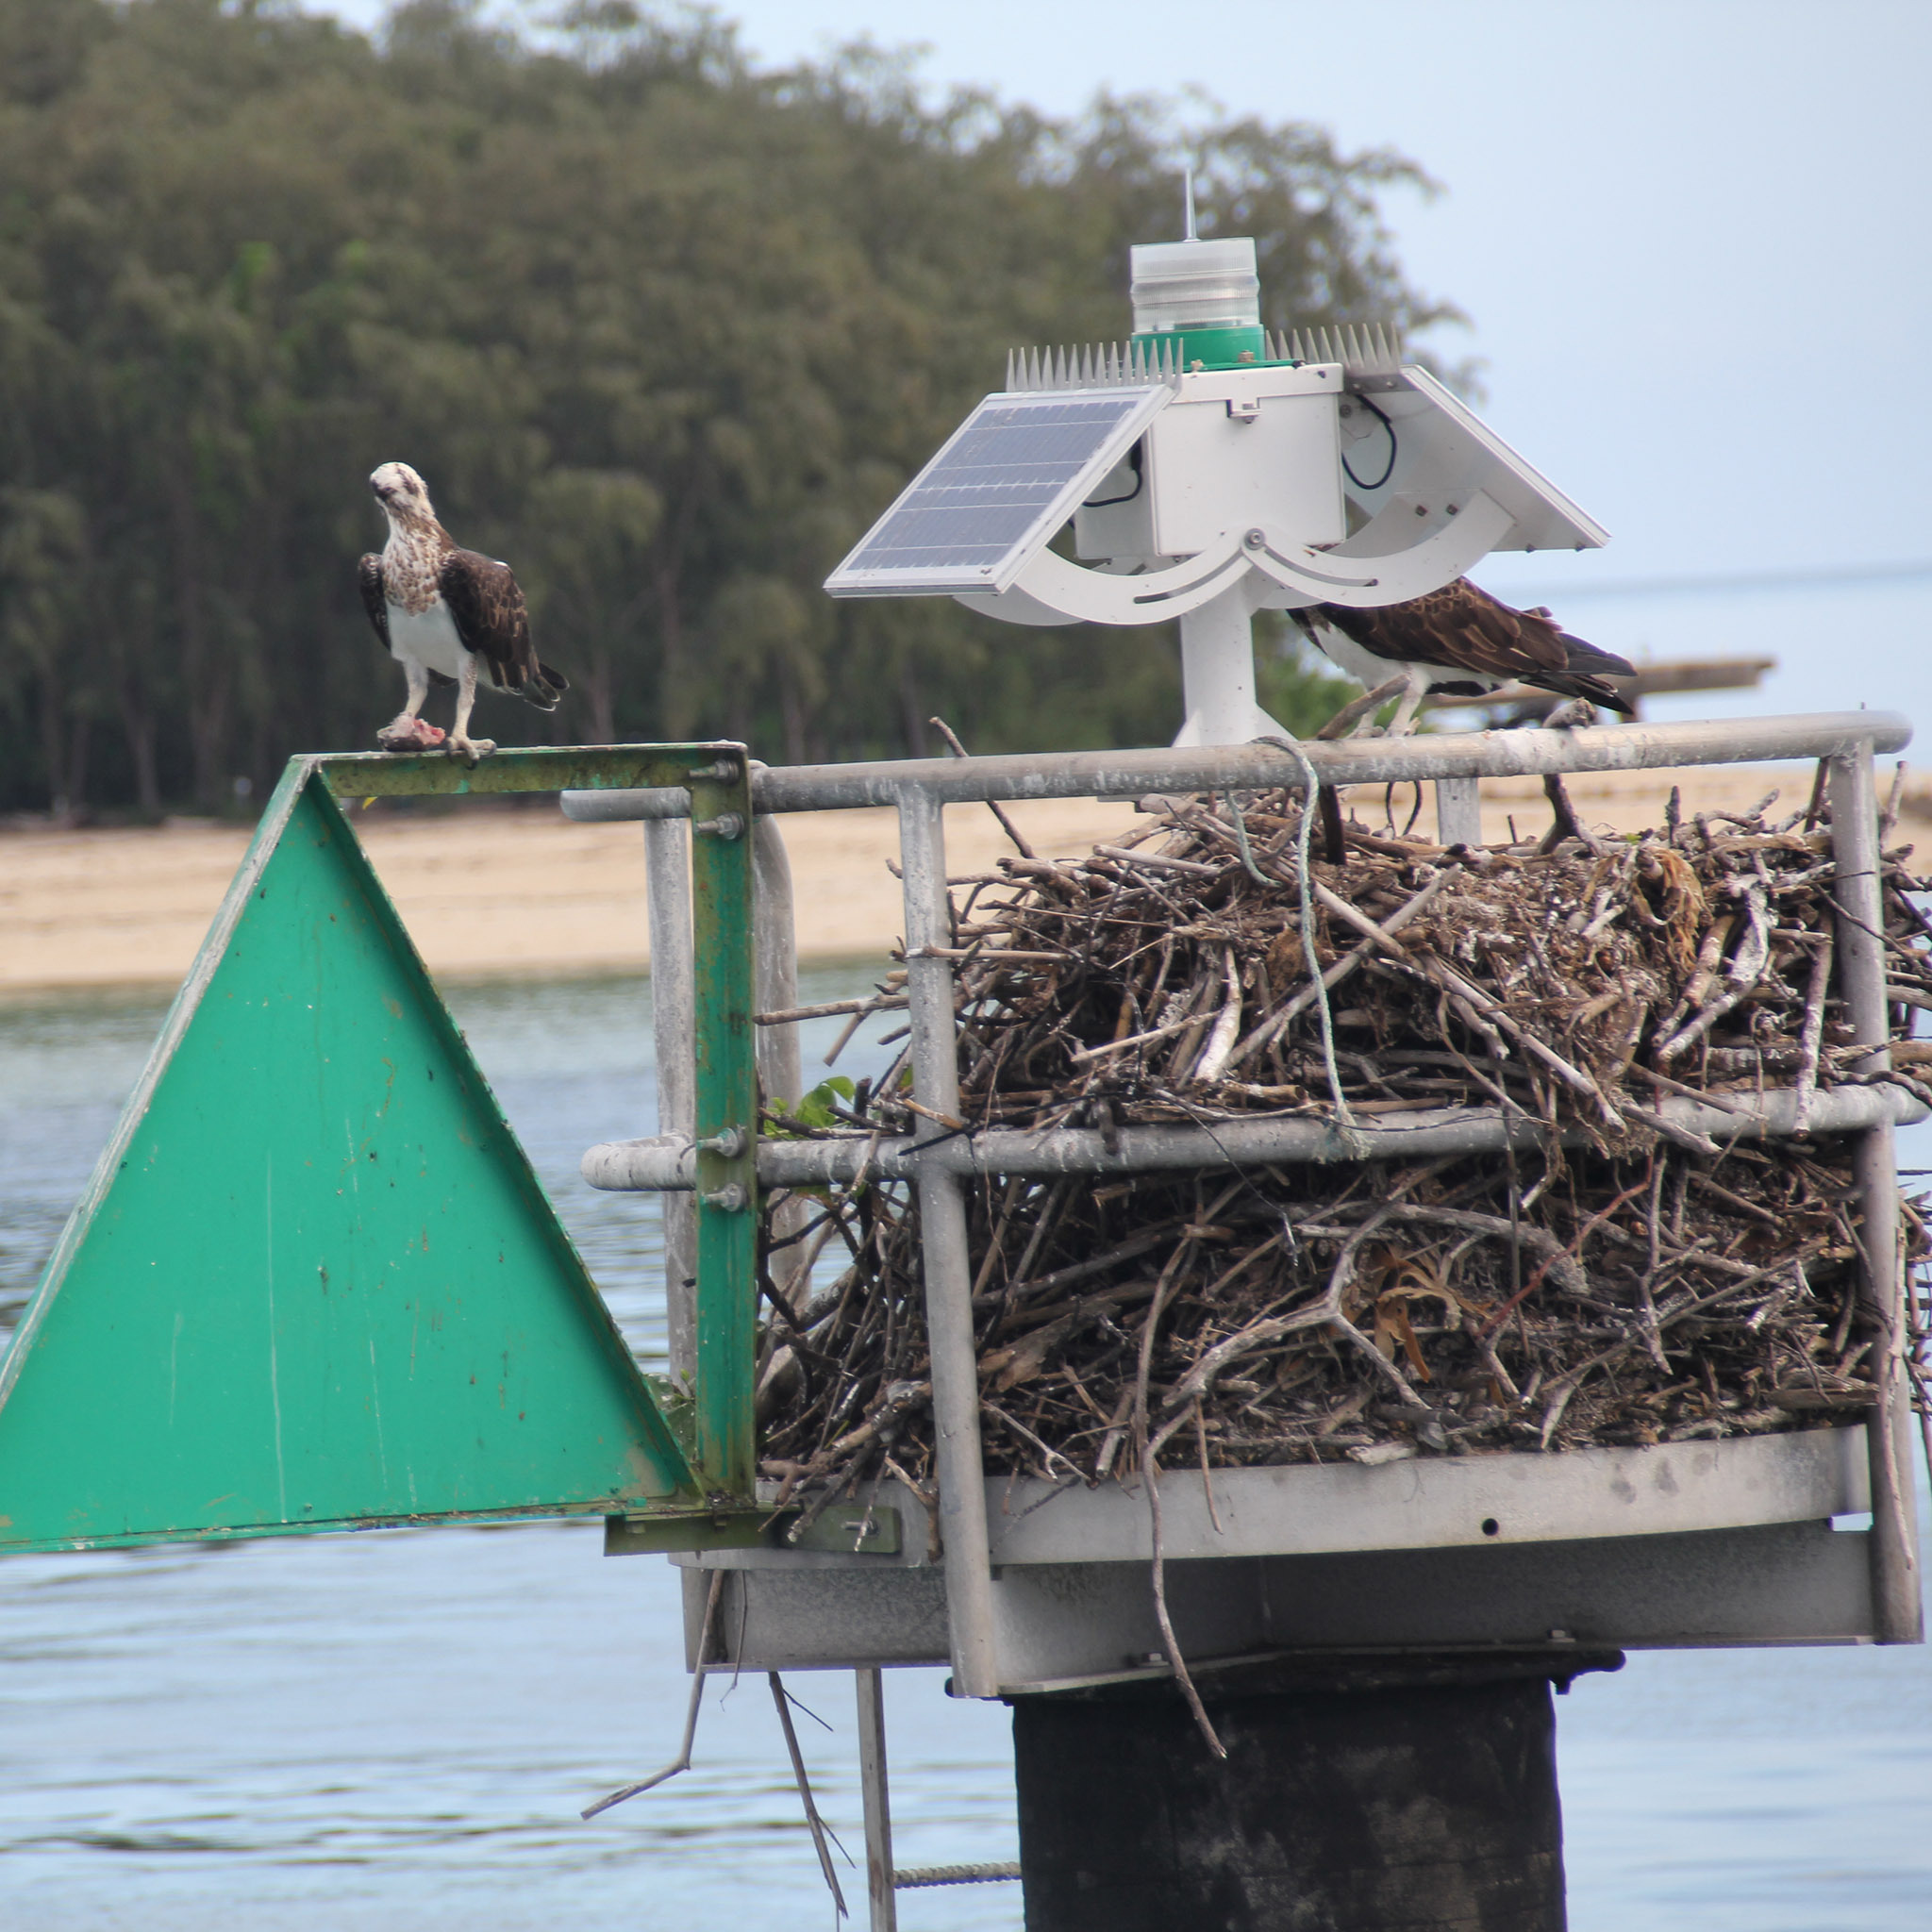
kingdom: Animalia
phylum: Chordata
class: Aves
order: Accipitriformes
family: Pandionidae
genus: Pandion
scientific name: Pandion haliaetus
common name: Osprey
